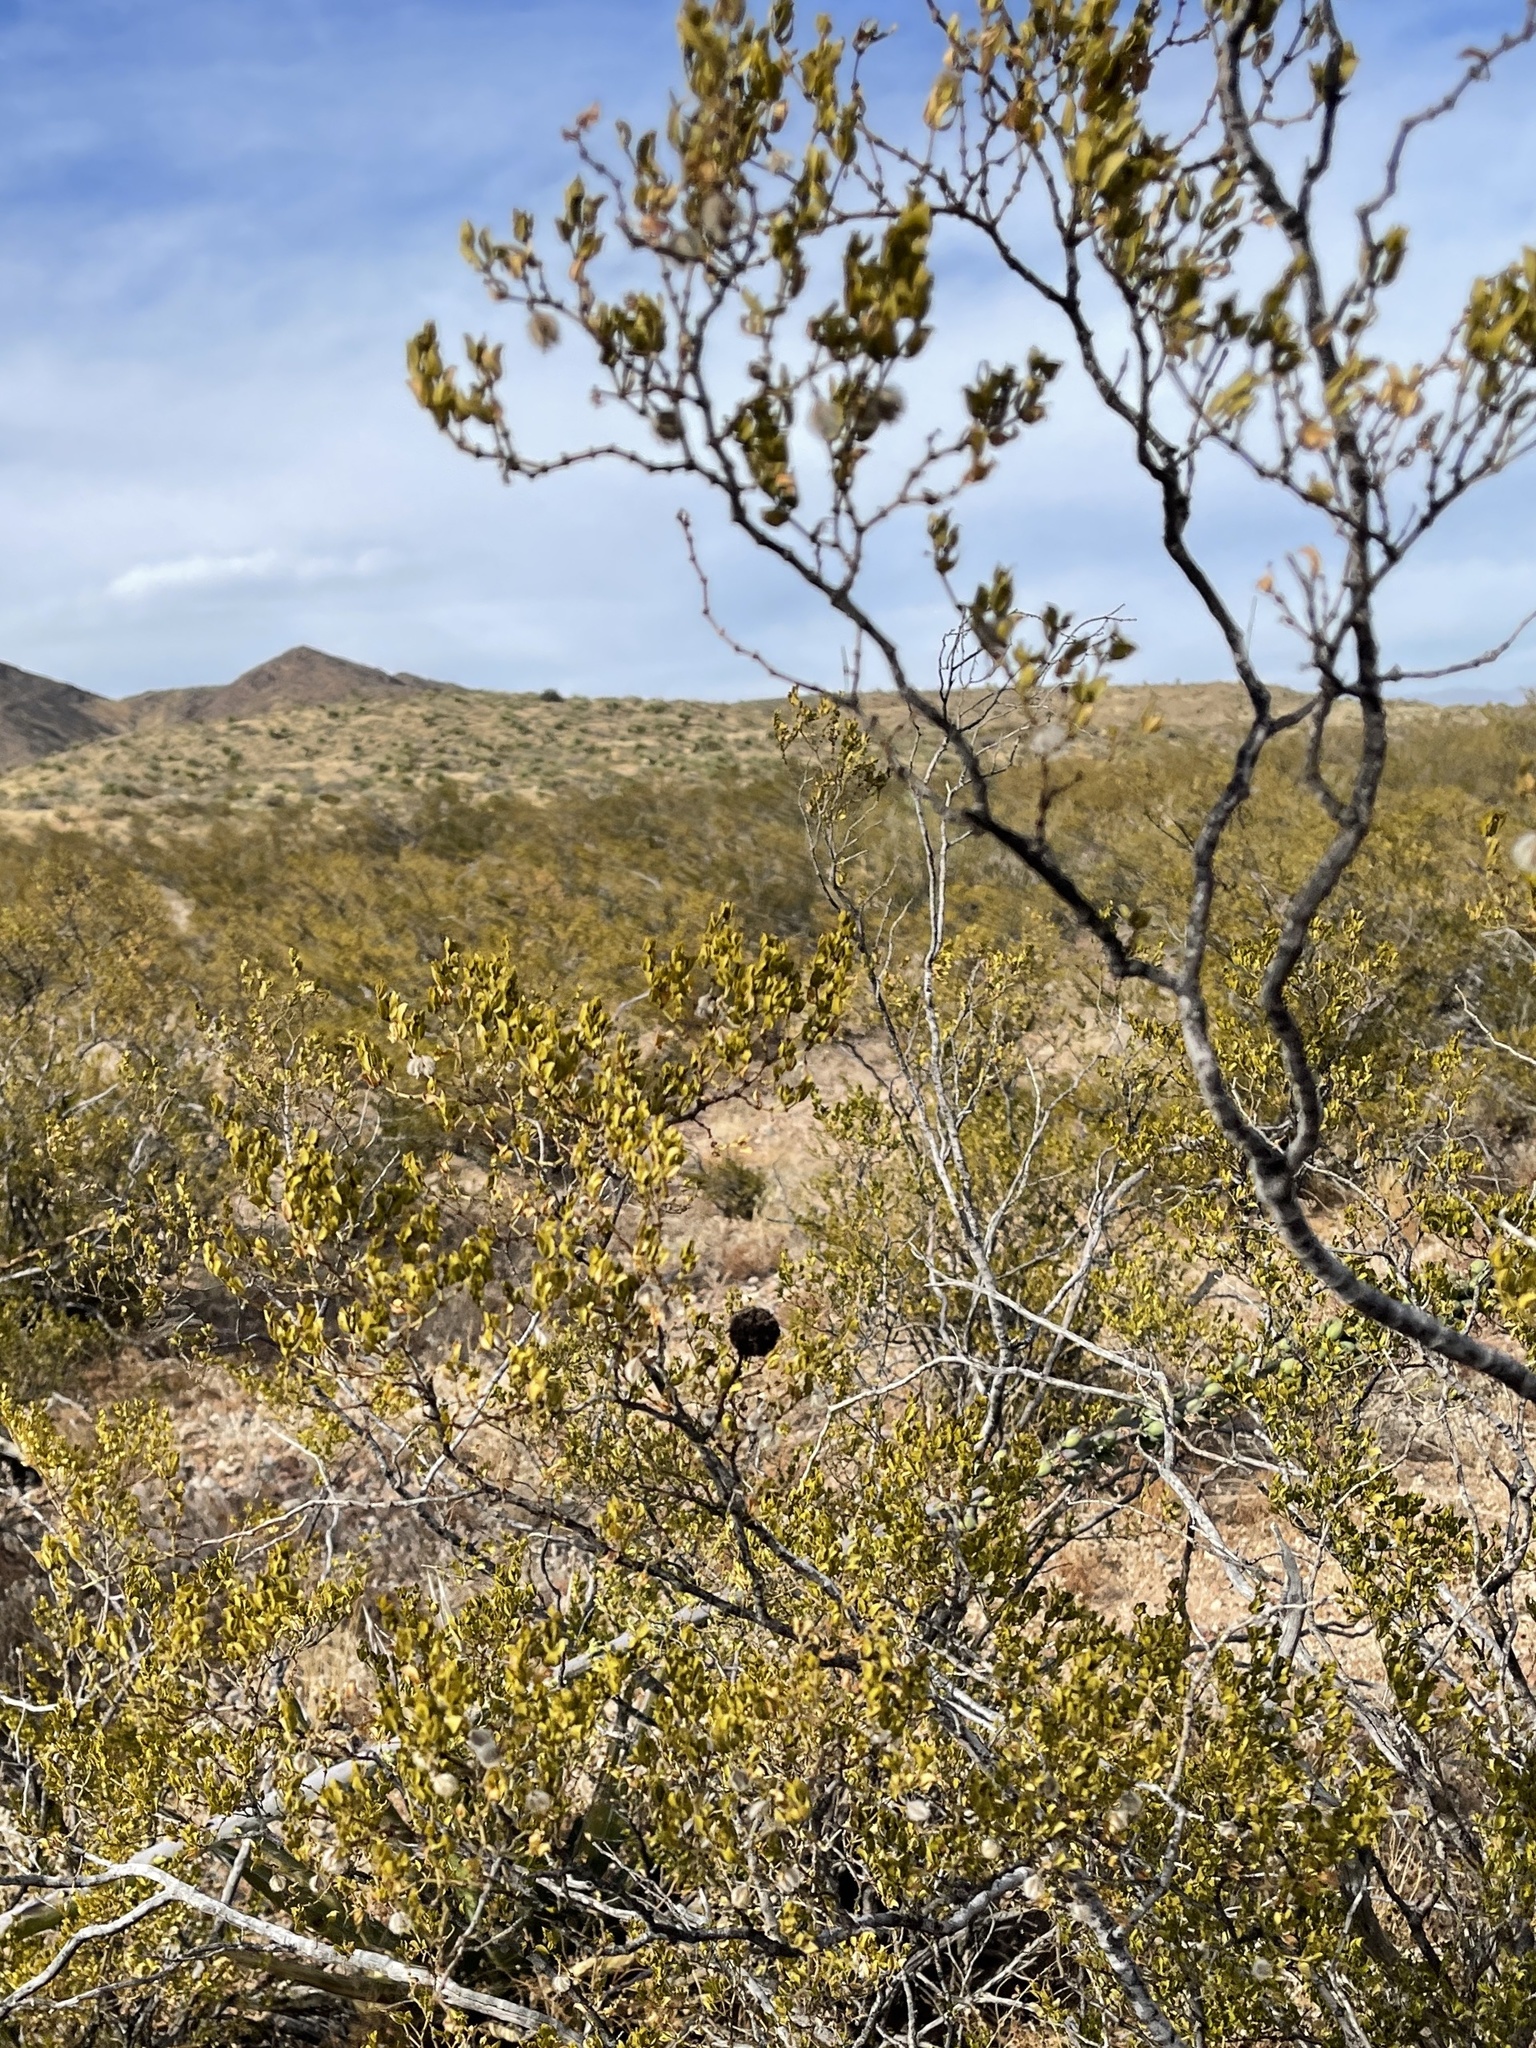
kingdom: Plantae
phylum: Tracheophyta
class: Magnoliopsida
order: Zygophyllales
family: Zygophyllaceae
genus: Larrea
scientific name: Larrea tridentata
